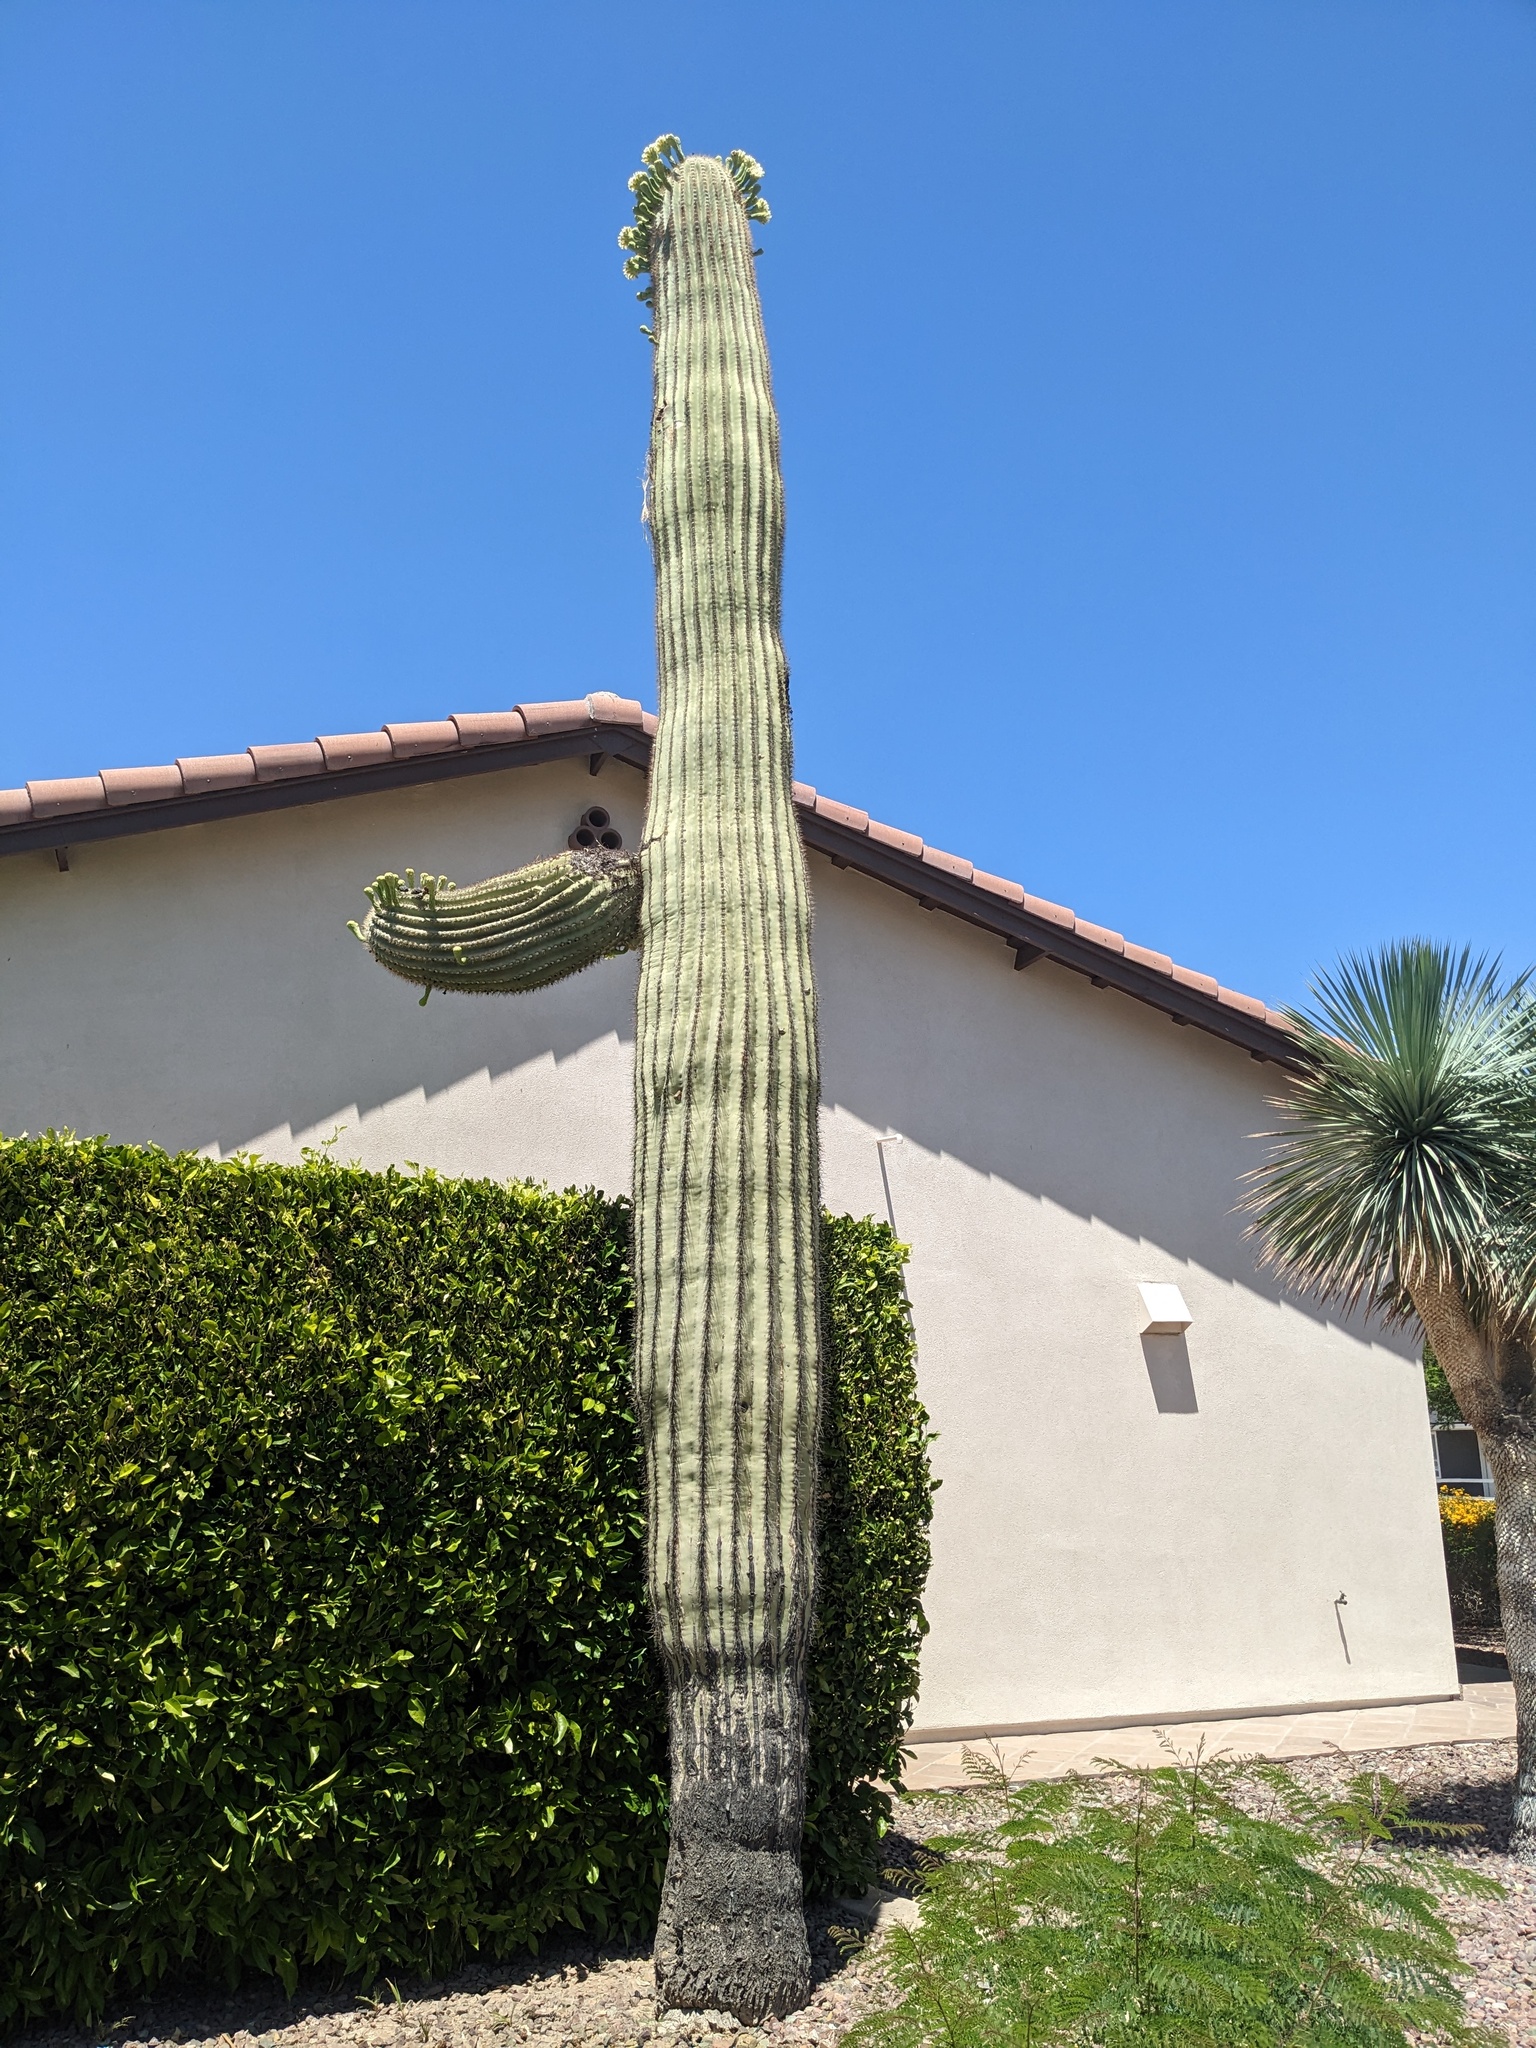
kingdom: Plantae
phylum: Tracheophyta
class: Magnoliopsida
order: Caryophyllales
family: Cactaceae
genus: Carnegiea
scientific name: Carnegiea gigantea
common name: Saguaro
